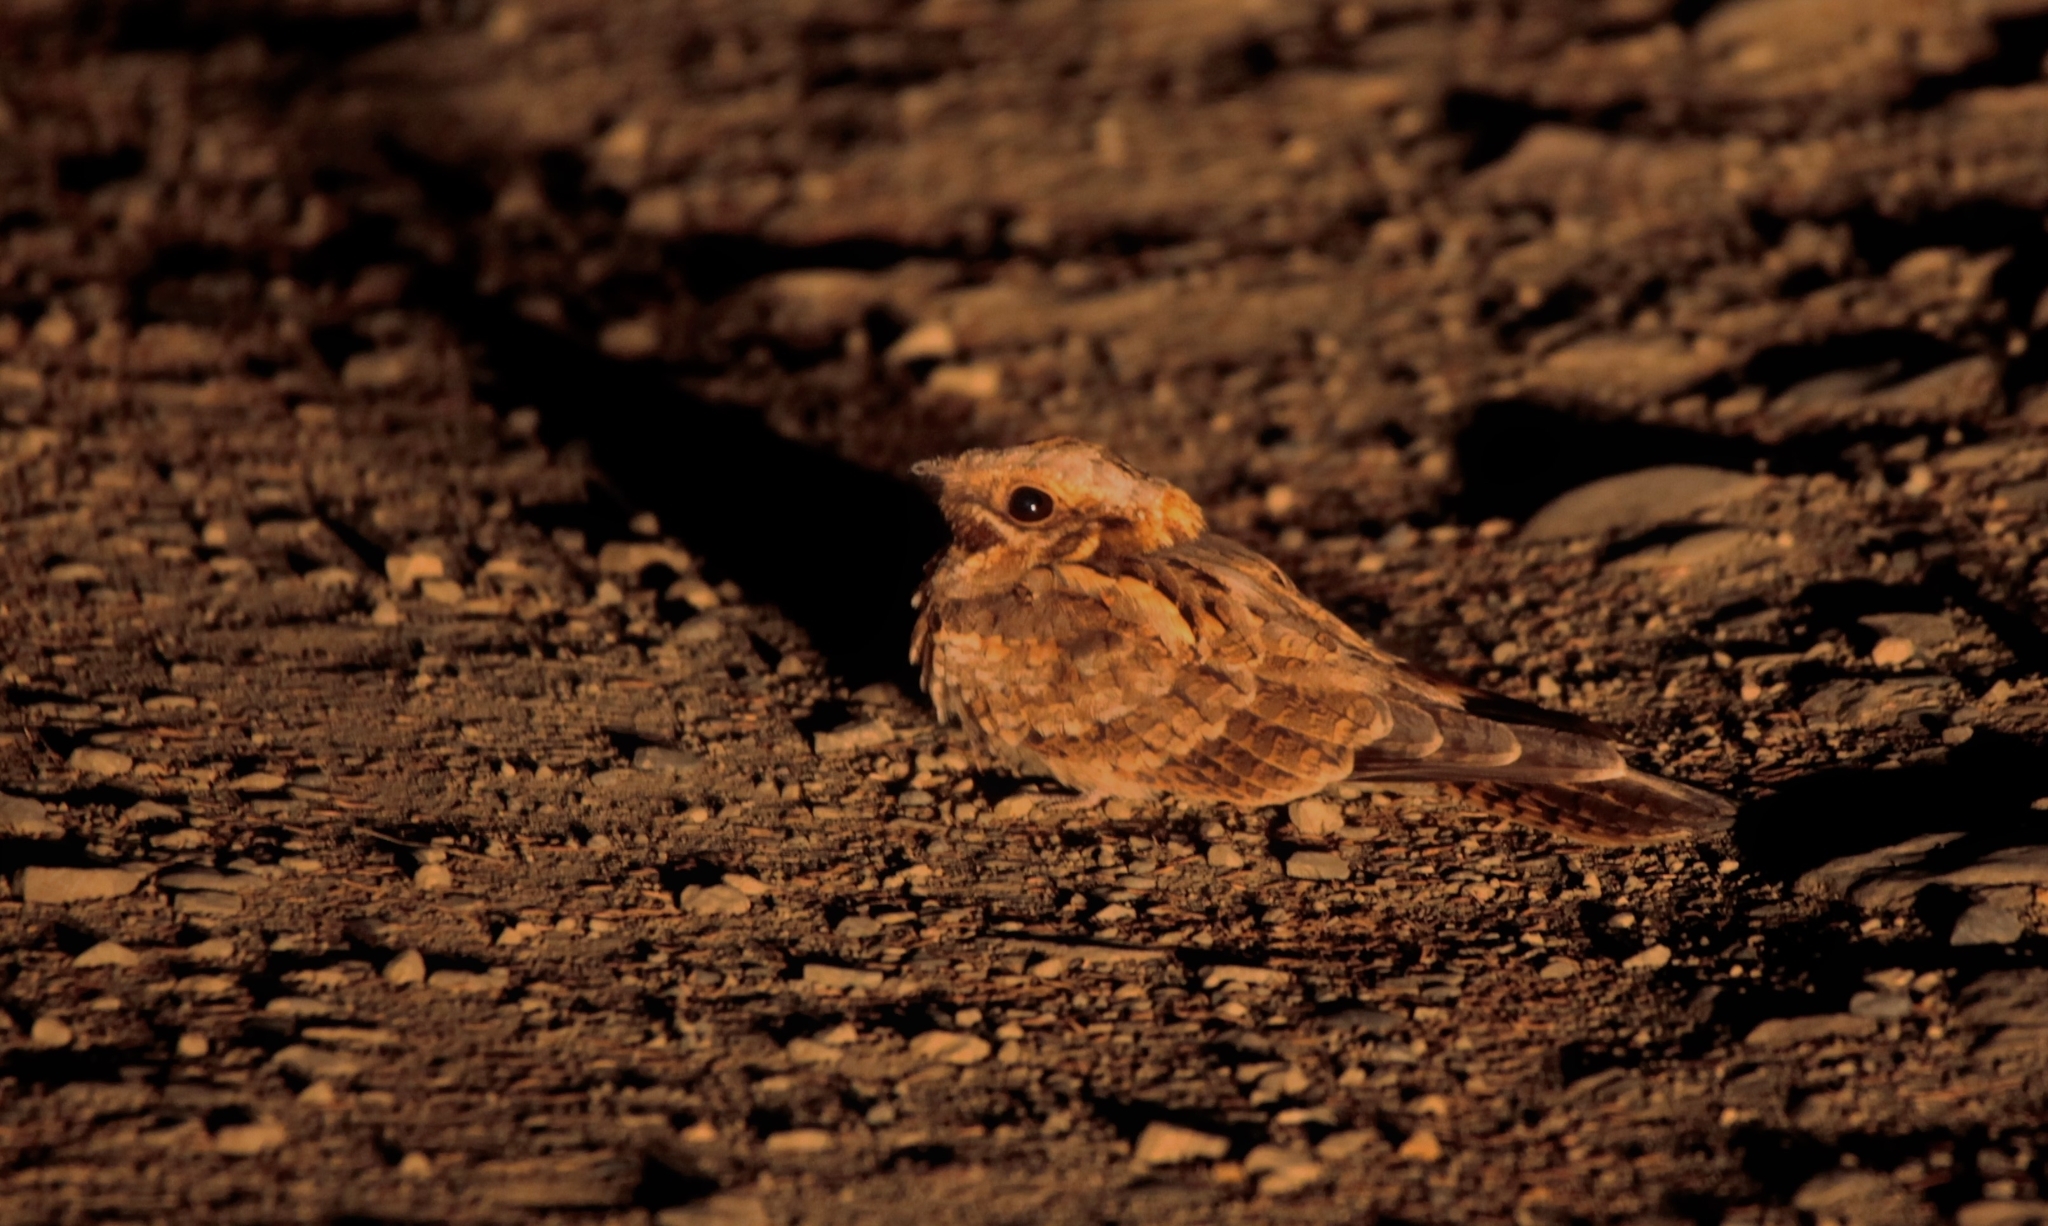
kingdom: Animalia
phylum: Chordata
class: Aves
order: Caprimulgiformes
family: Caprimulgidae
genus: Caprimulgus
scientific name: Caprimulgus ruficollis
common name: Red-necked nightjar
